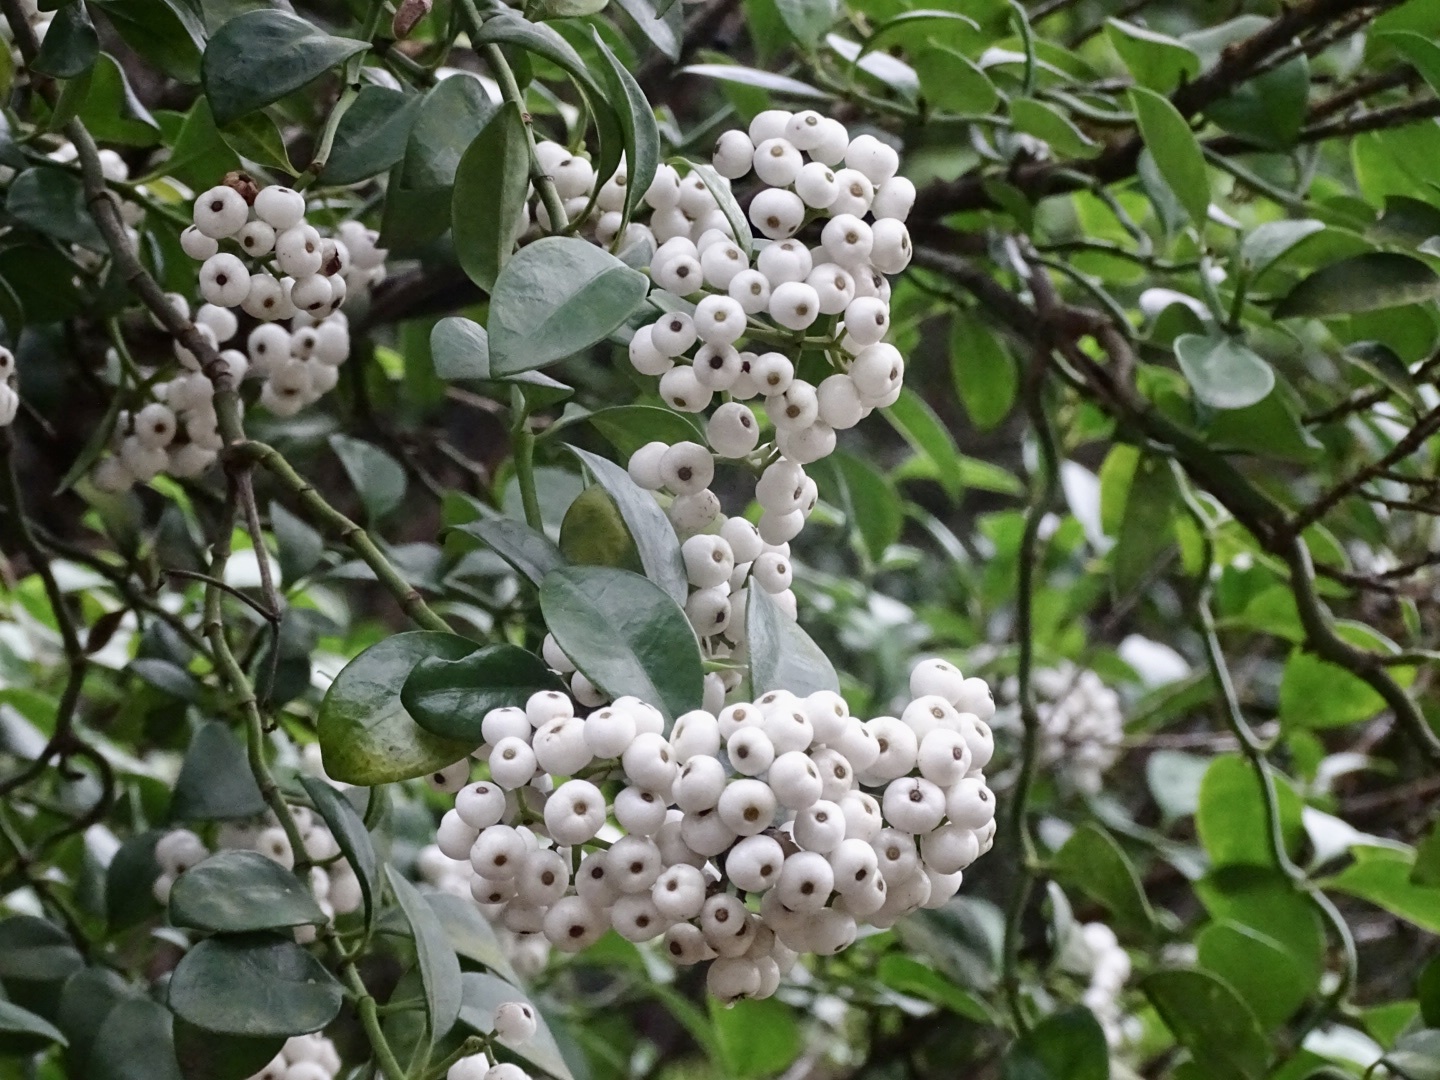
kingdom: Plantae
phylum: Tracheophyta
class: Magnoliopsida
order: Gentianales
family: Rubiaceae
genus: Psychotria
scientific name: Psychotria serpens
